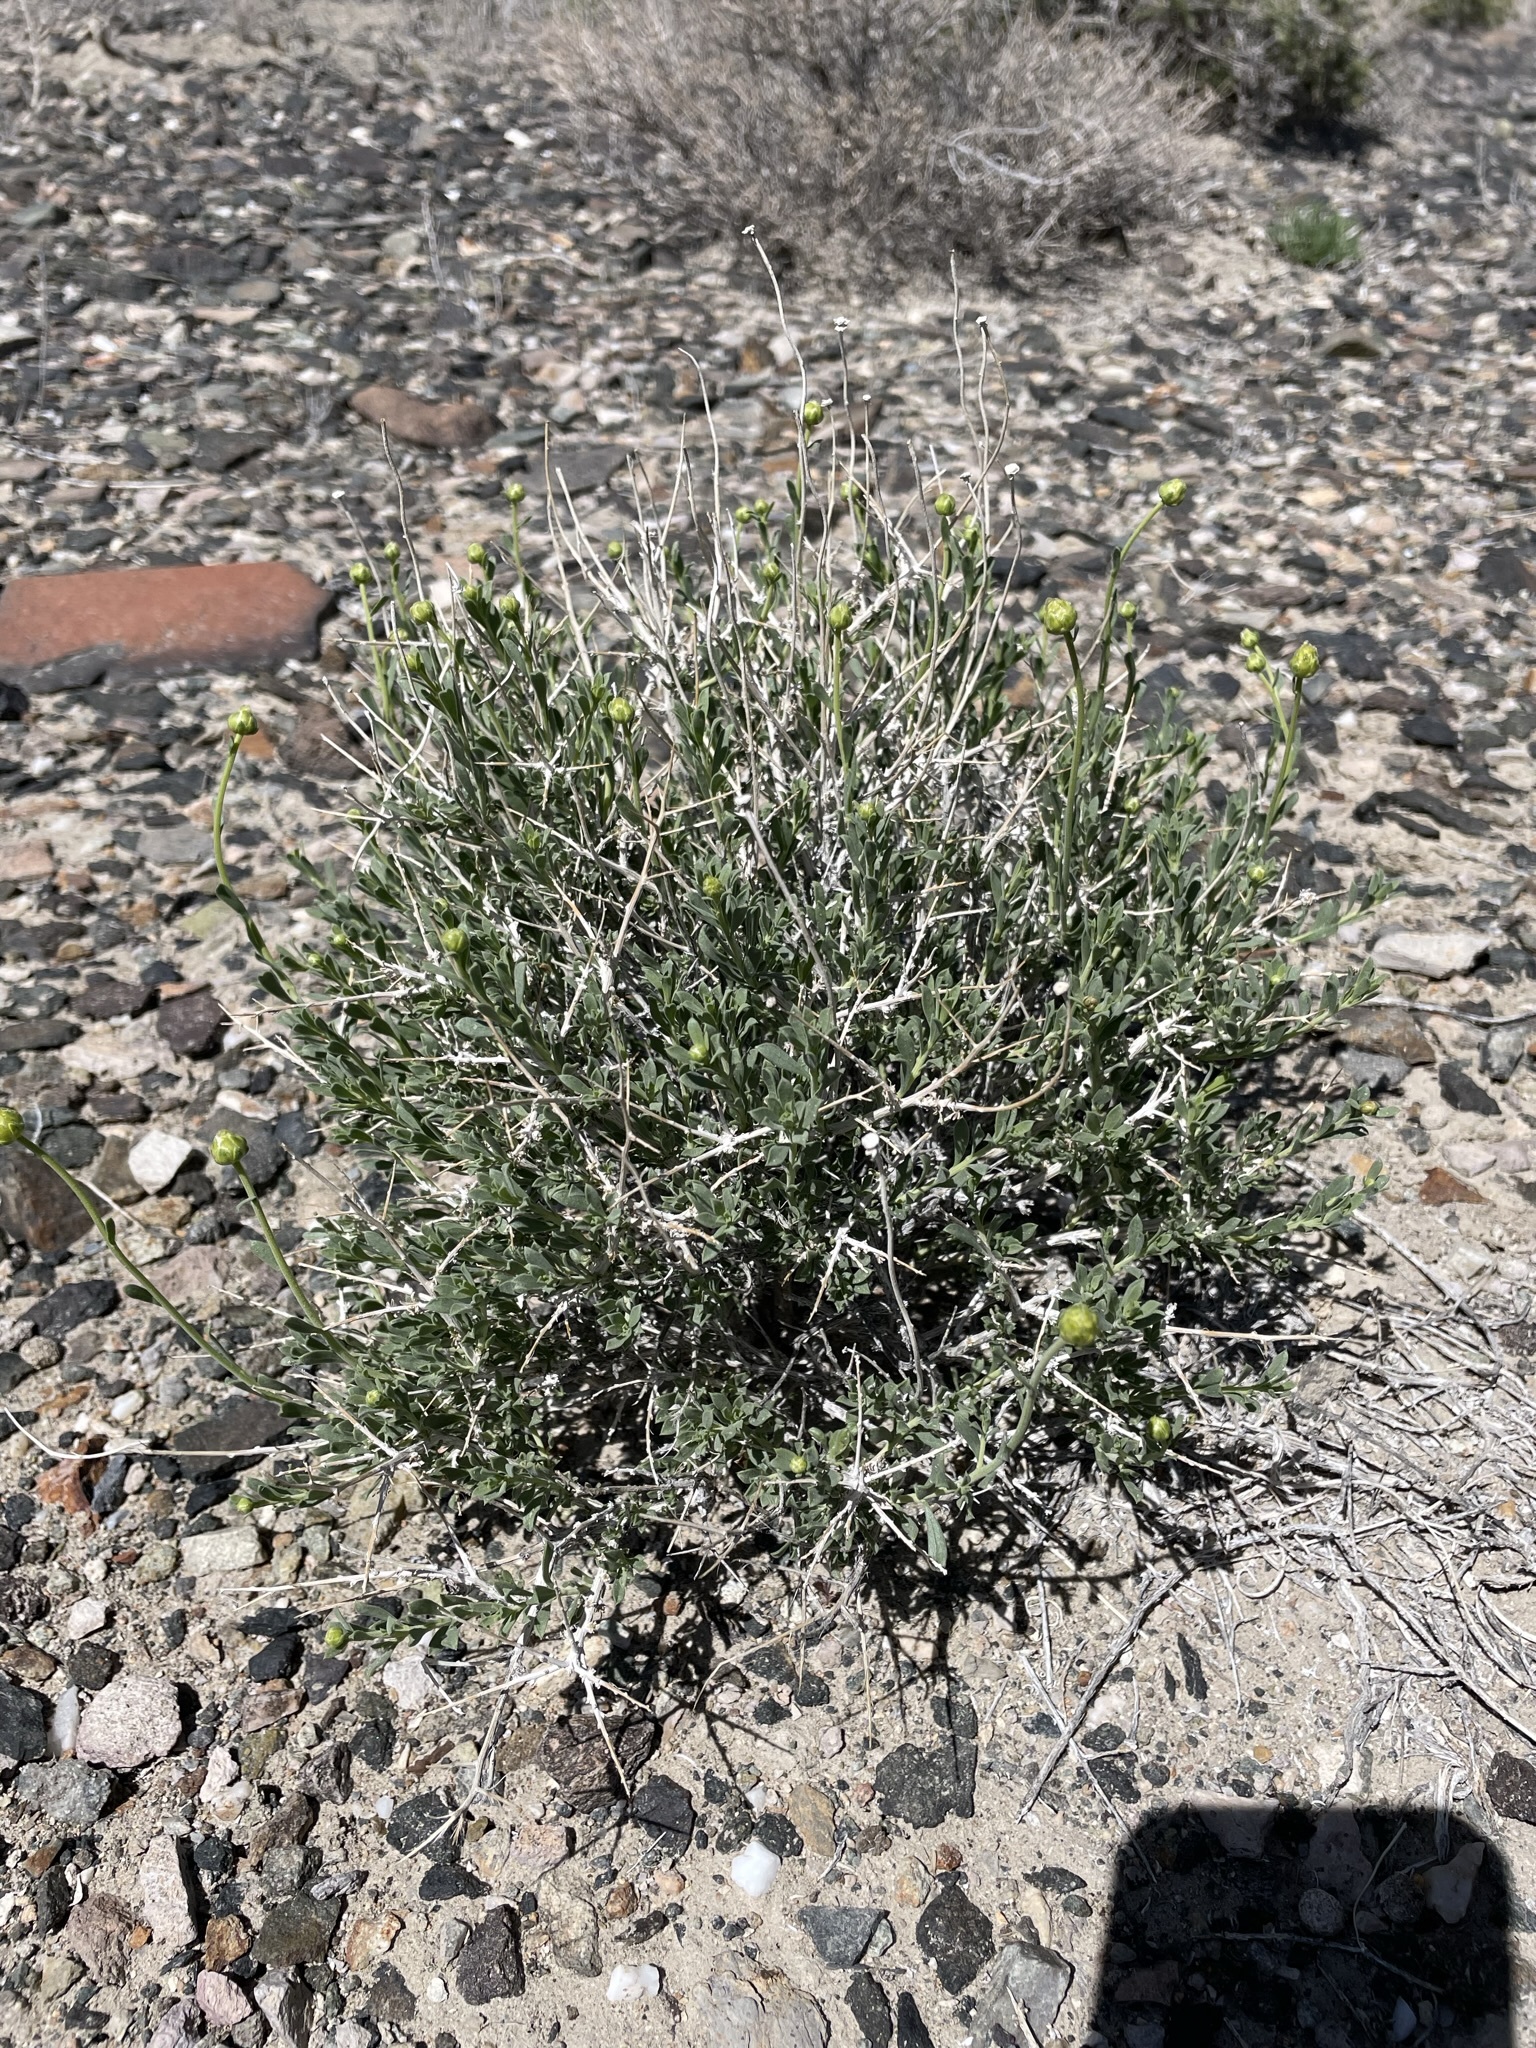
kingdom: Plantae
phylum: Tracheophyta
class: Magnoliopsida
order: Asterales
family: Asteraceae
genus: Acamptopappus
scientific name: Acamptopappus shockleyi
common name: Shockley's goldenhead
